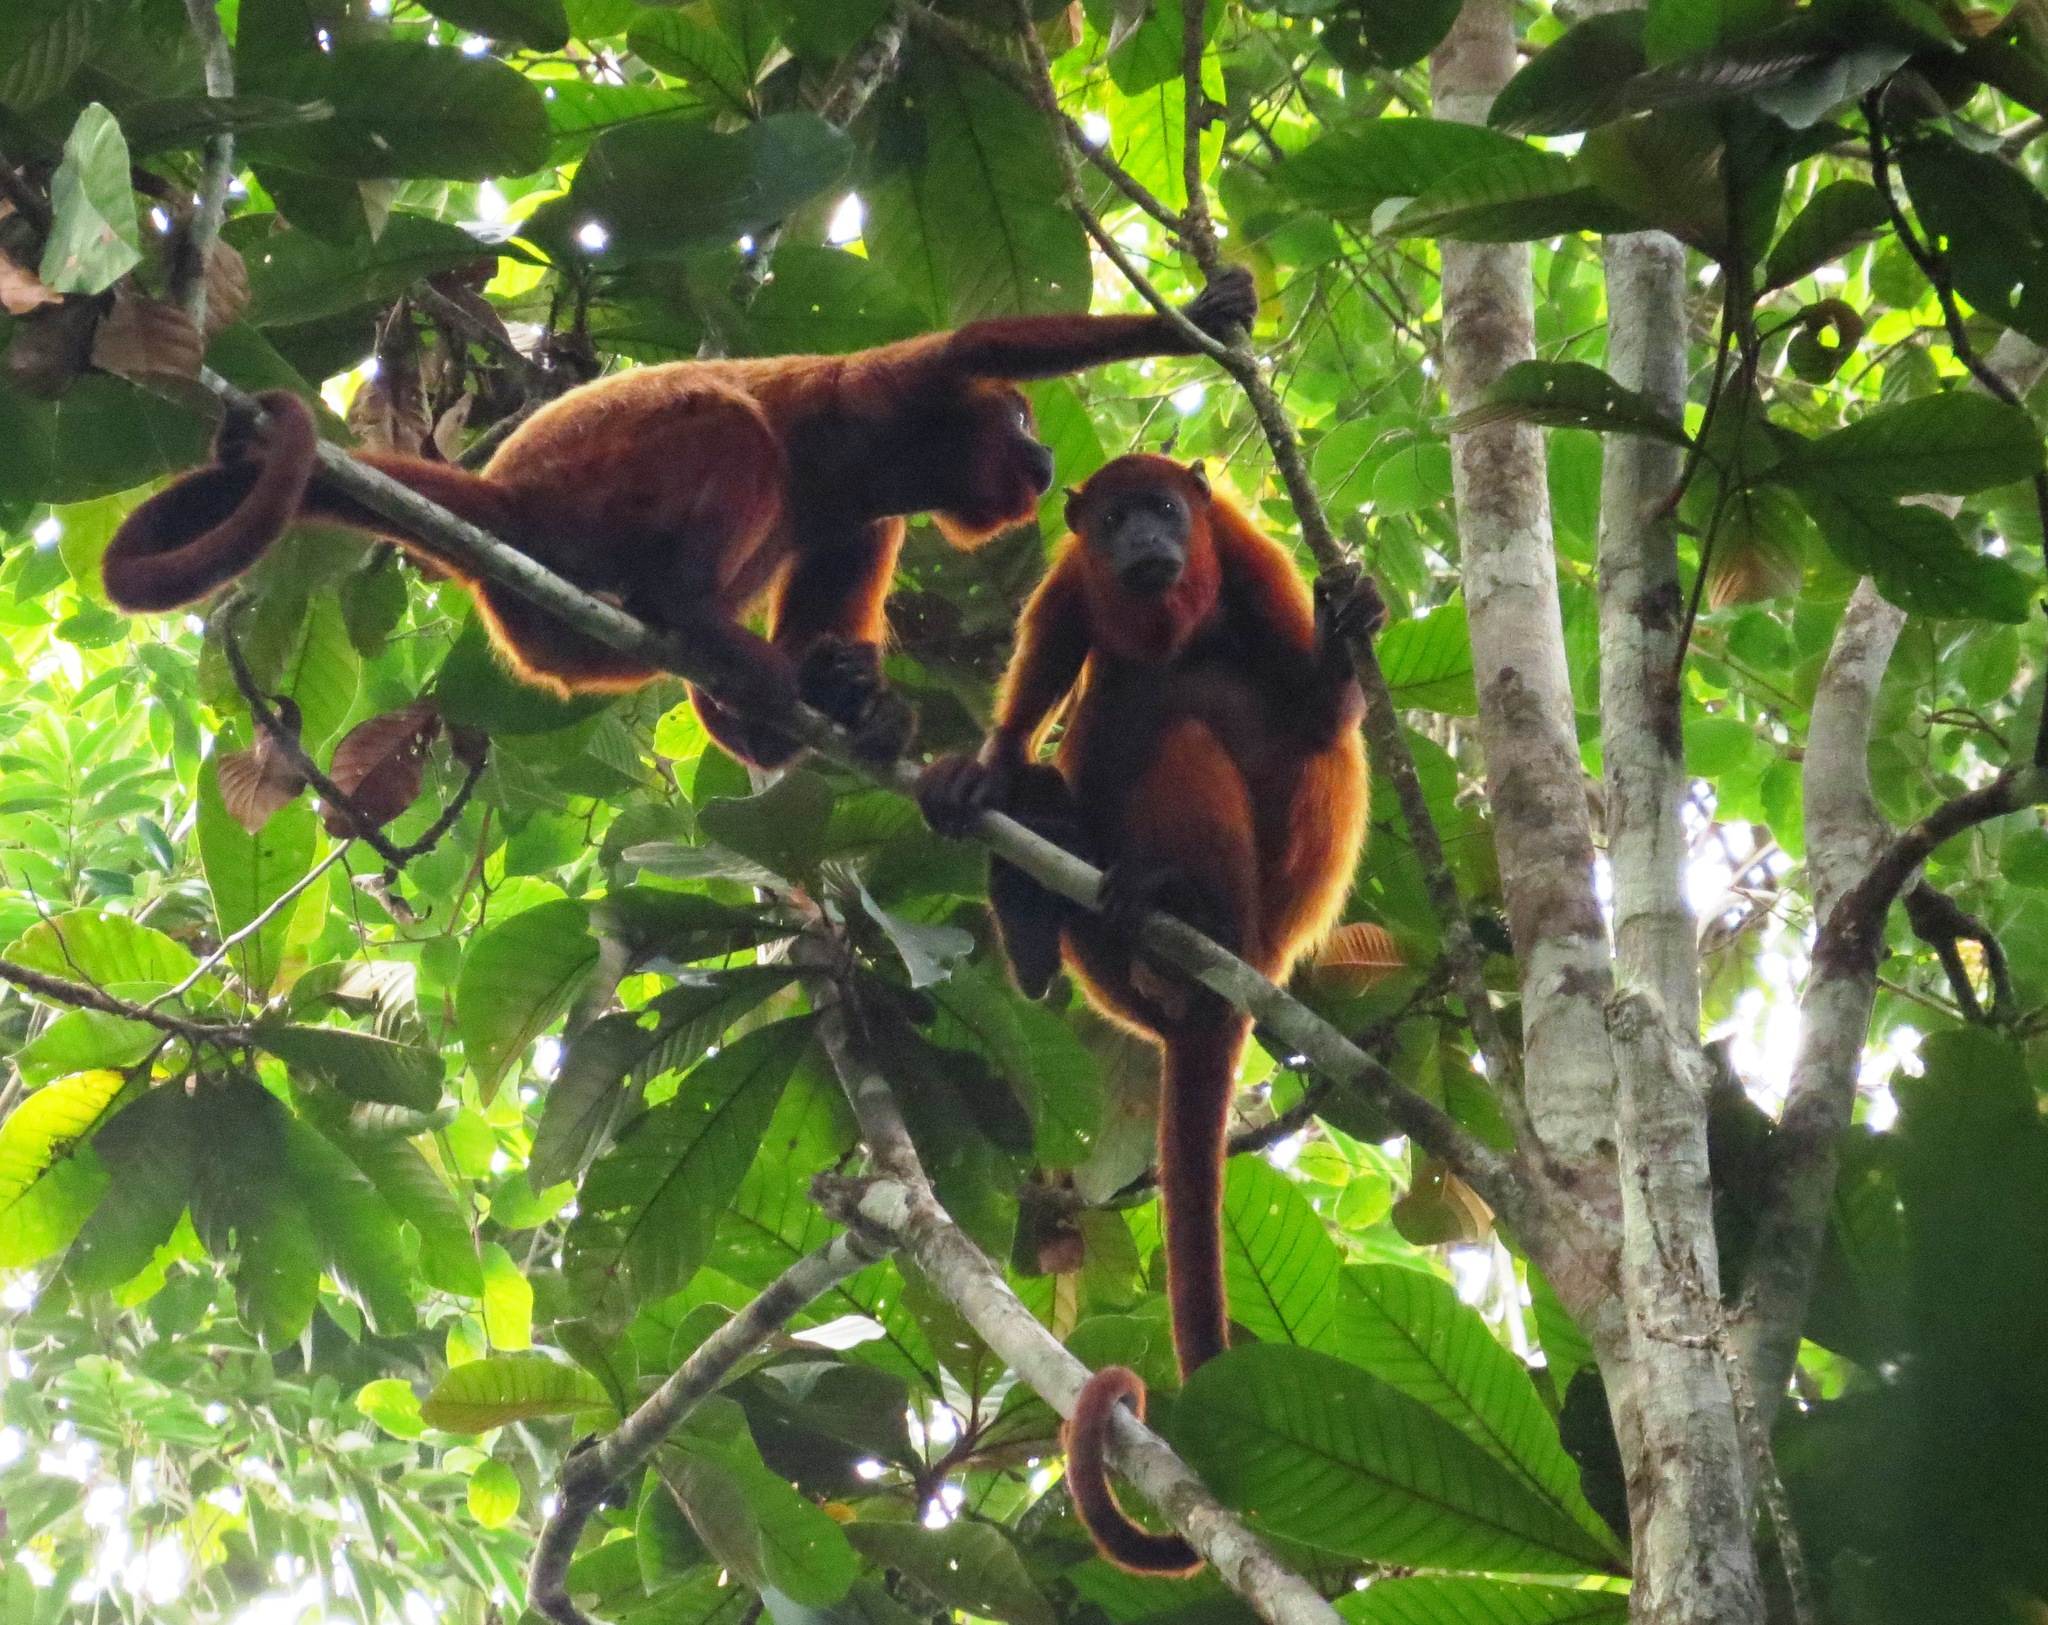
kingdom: Animalia
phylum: Chordata
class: Mammalia
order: Primates
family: Atelidae
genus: Alouatta
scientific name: Alouatta macconnelli
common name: Guyanan red howler
